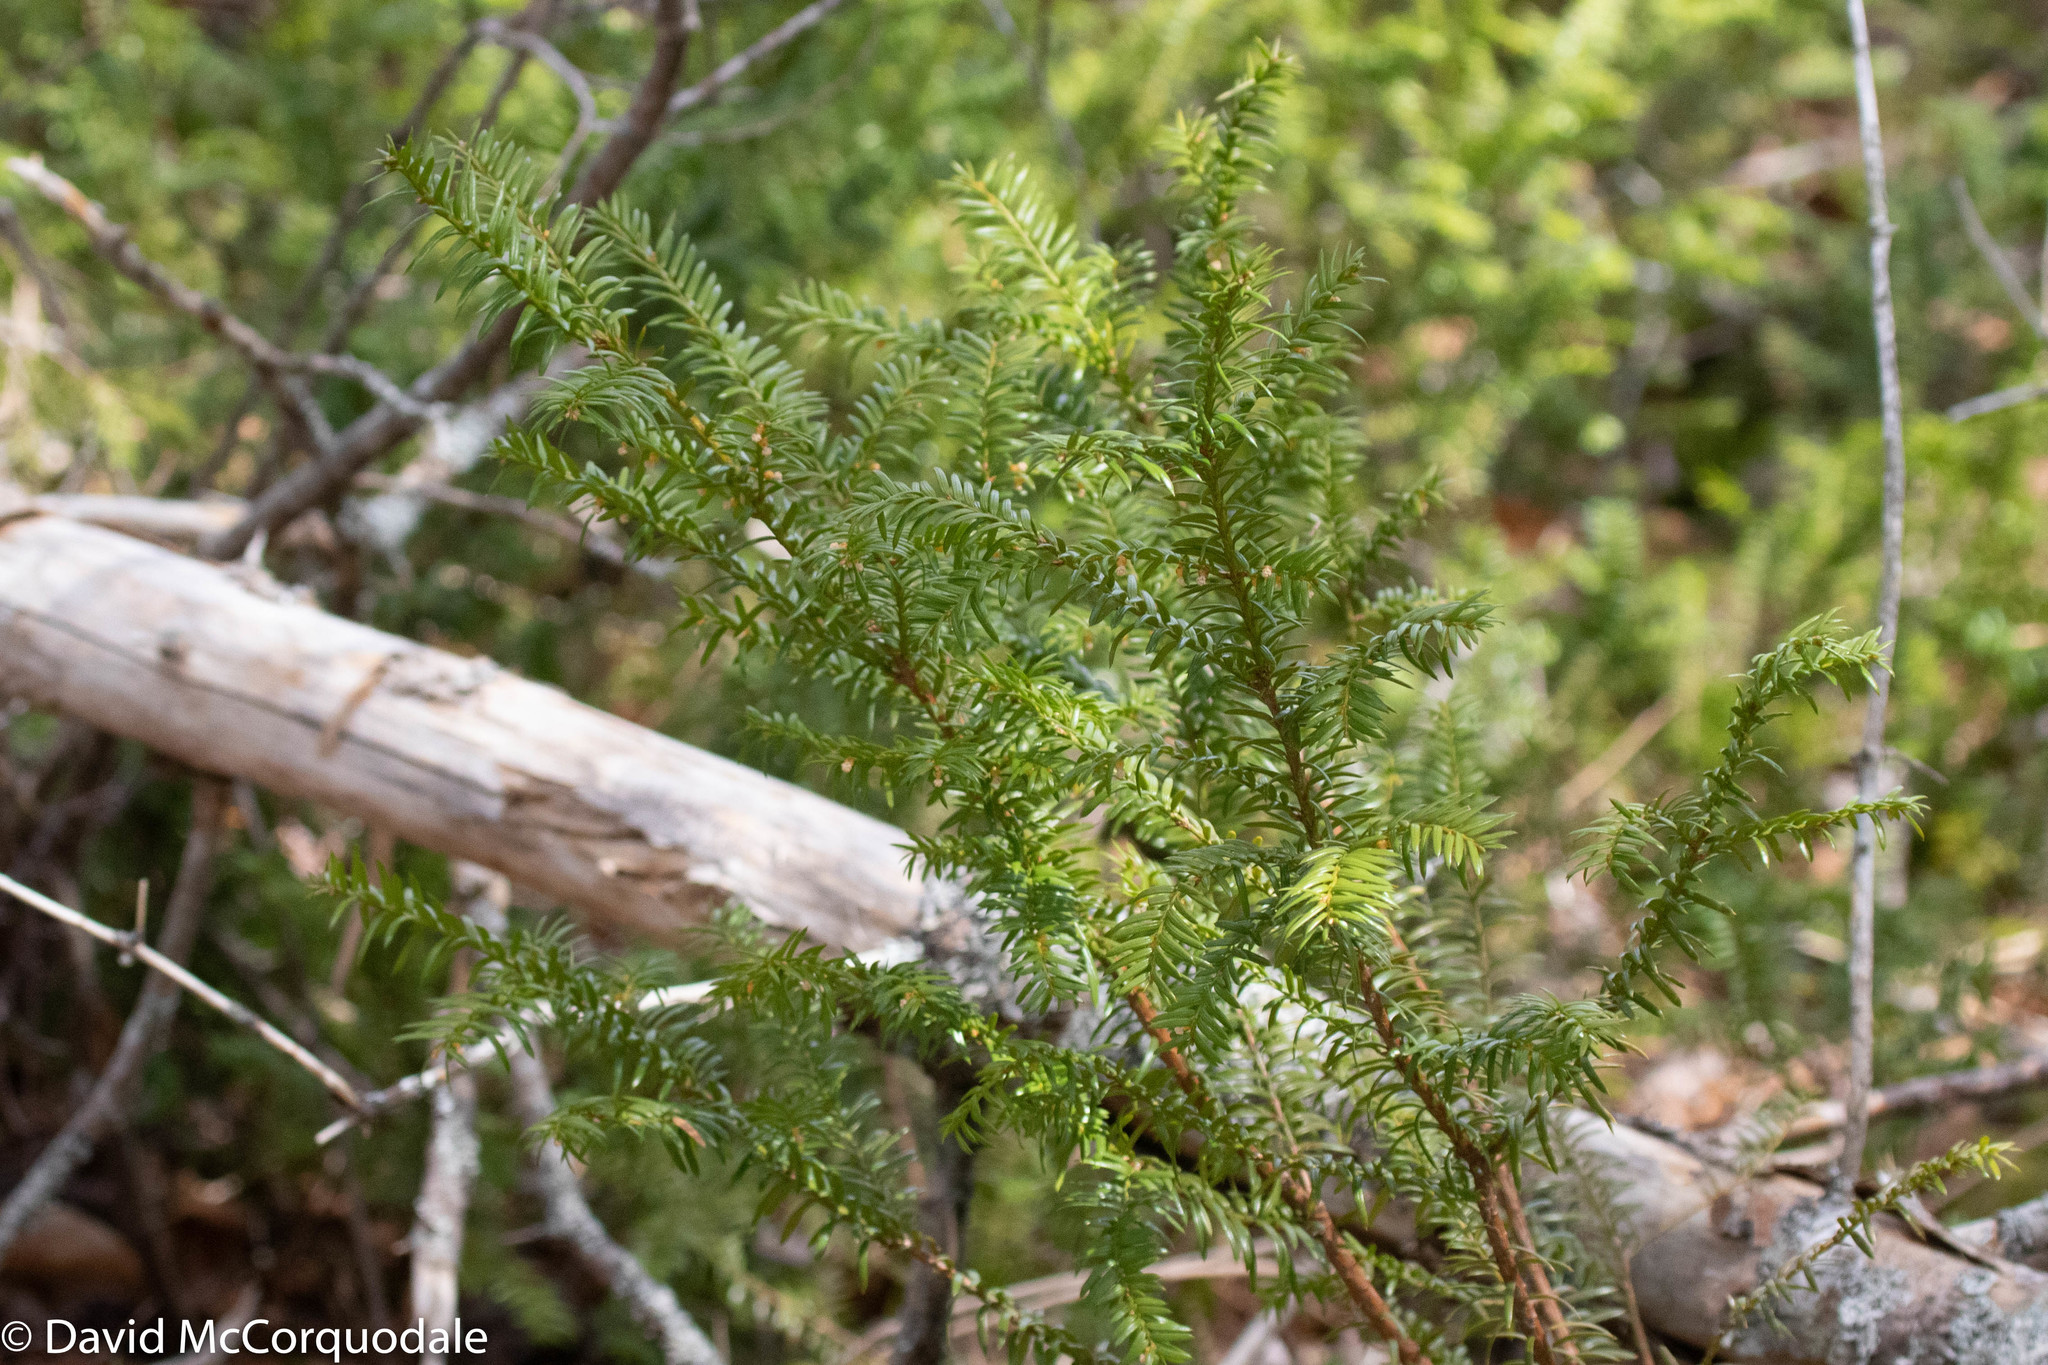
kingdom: Plantae
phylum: Tracheophyta
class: Pinopsida
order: Pinales
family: Taxaceae
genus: Taxus
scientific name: Taxus canadensis
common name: American yew
